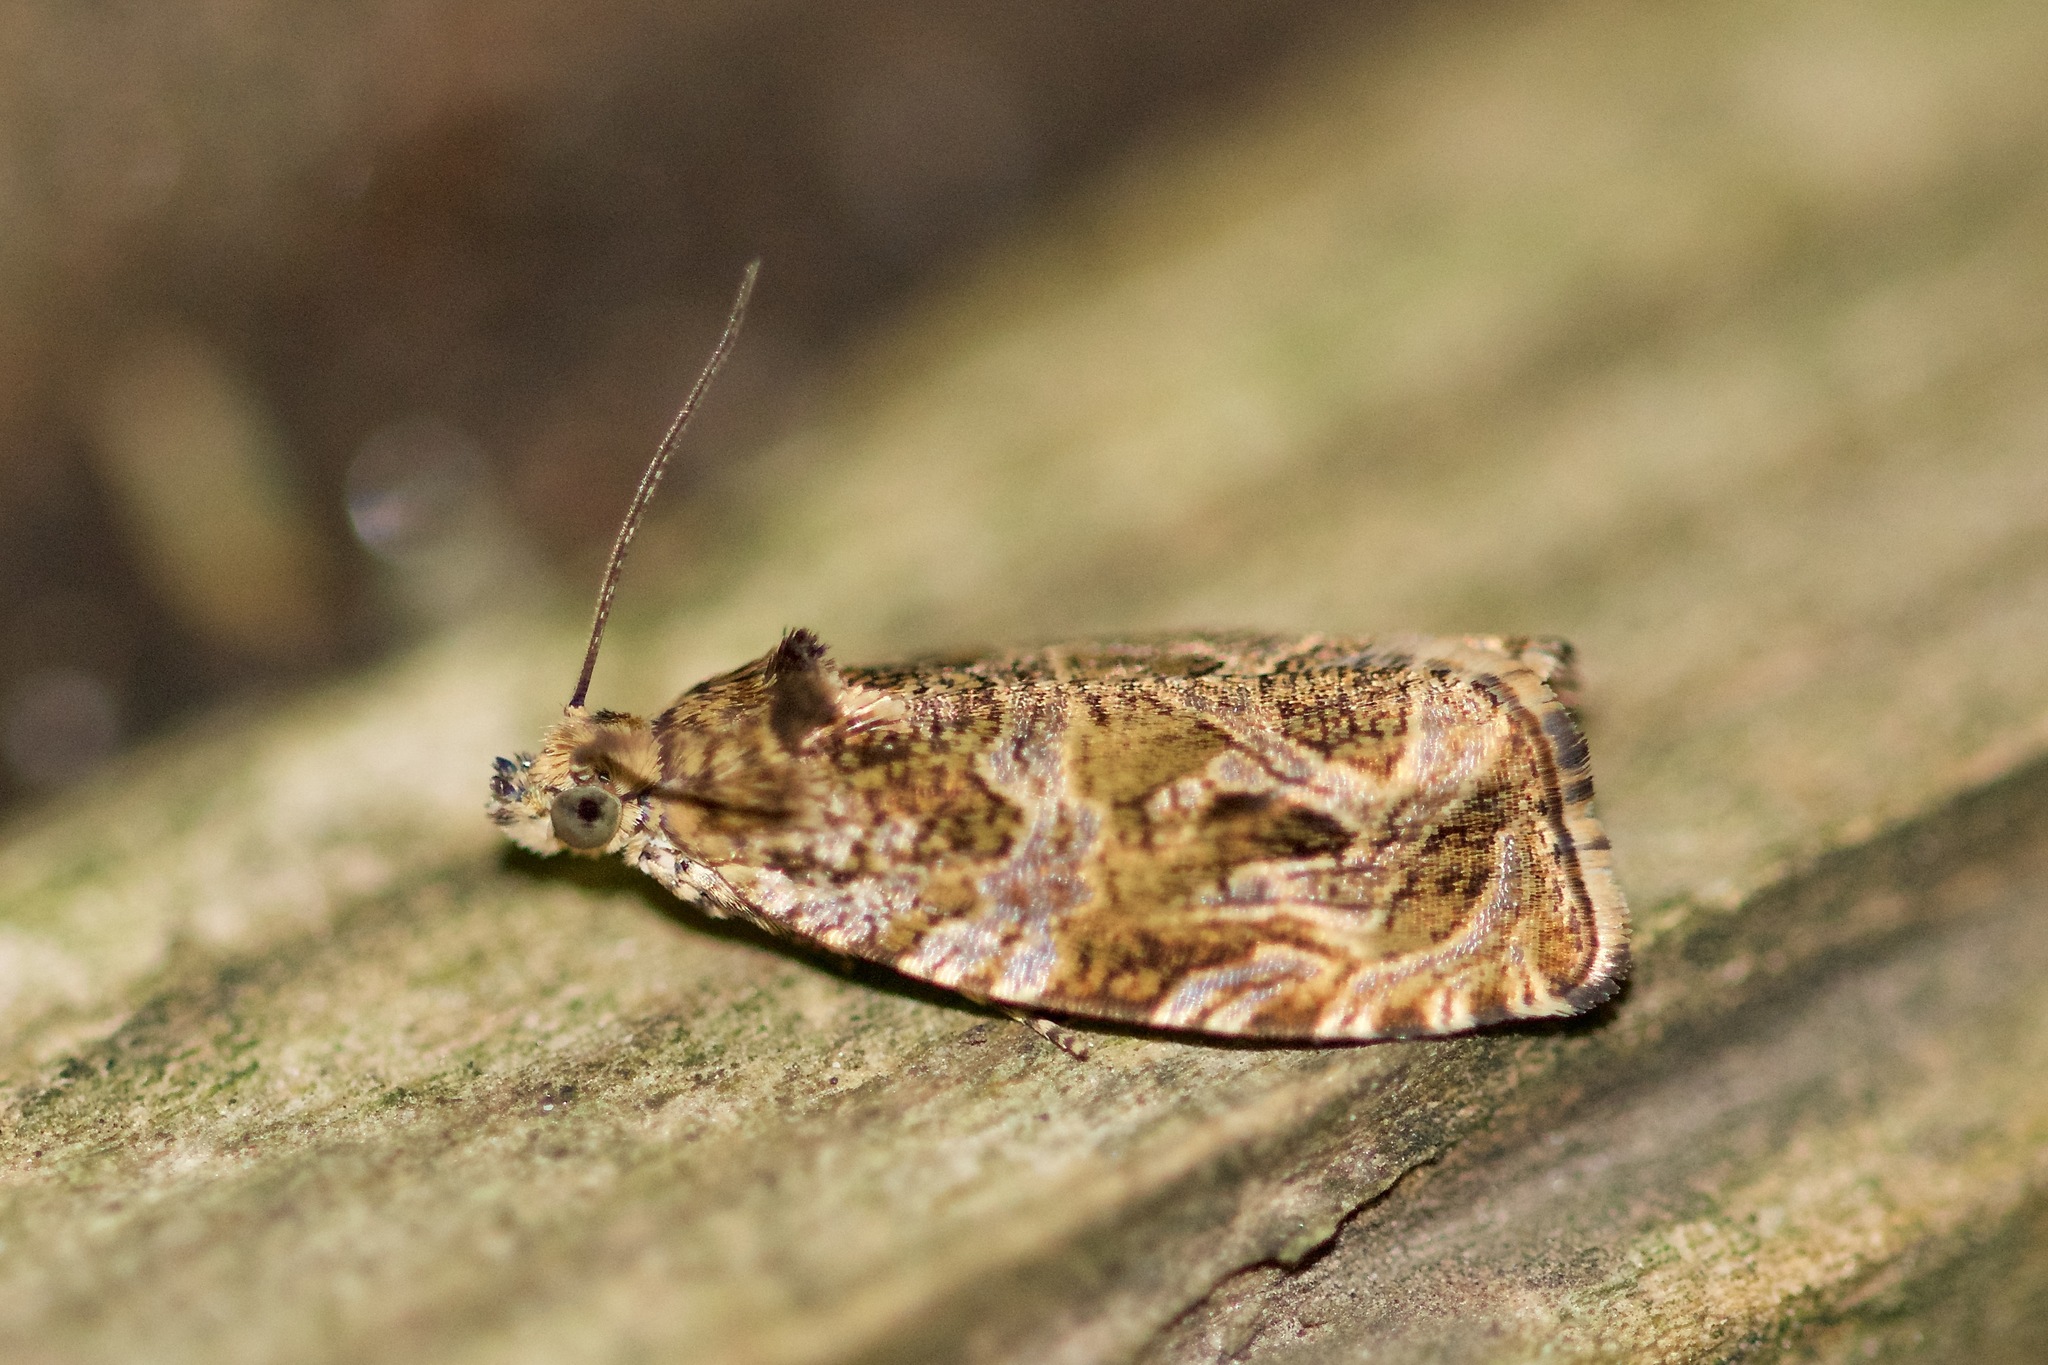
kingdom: Animalia
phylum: Arthropoda
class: Insecta
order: Lepidoptera
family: Tortricidae
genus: Olethreutes
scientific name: Olethreutes permundana
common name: Raspberry leafroller moth
